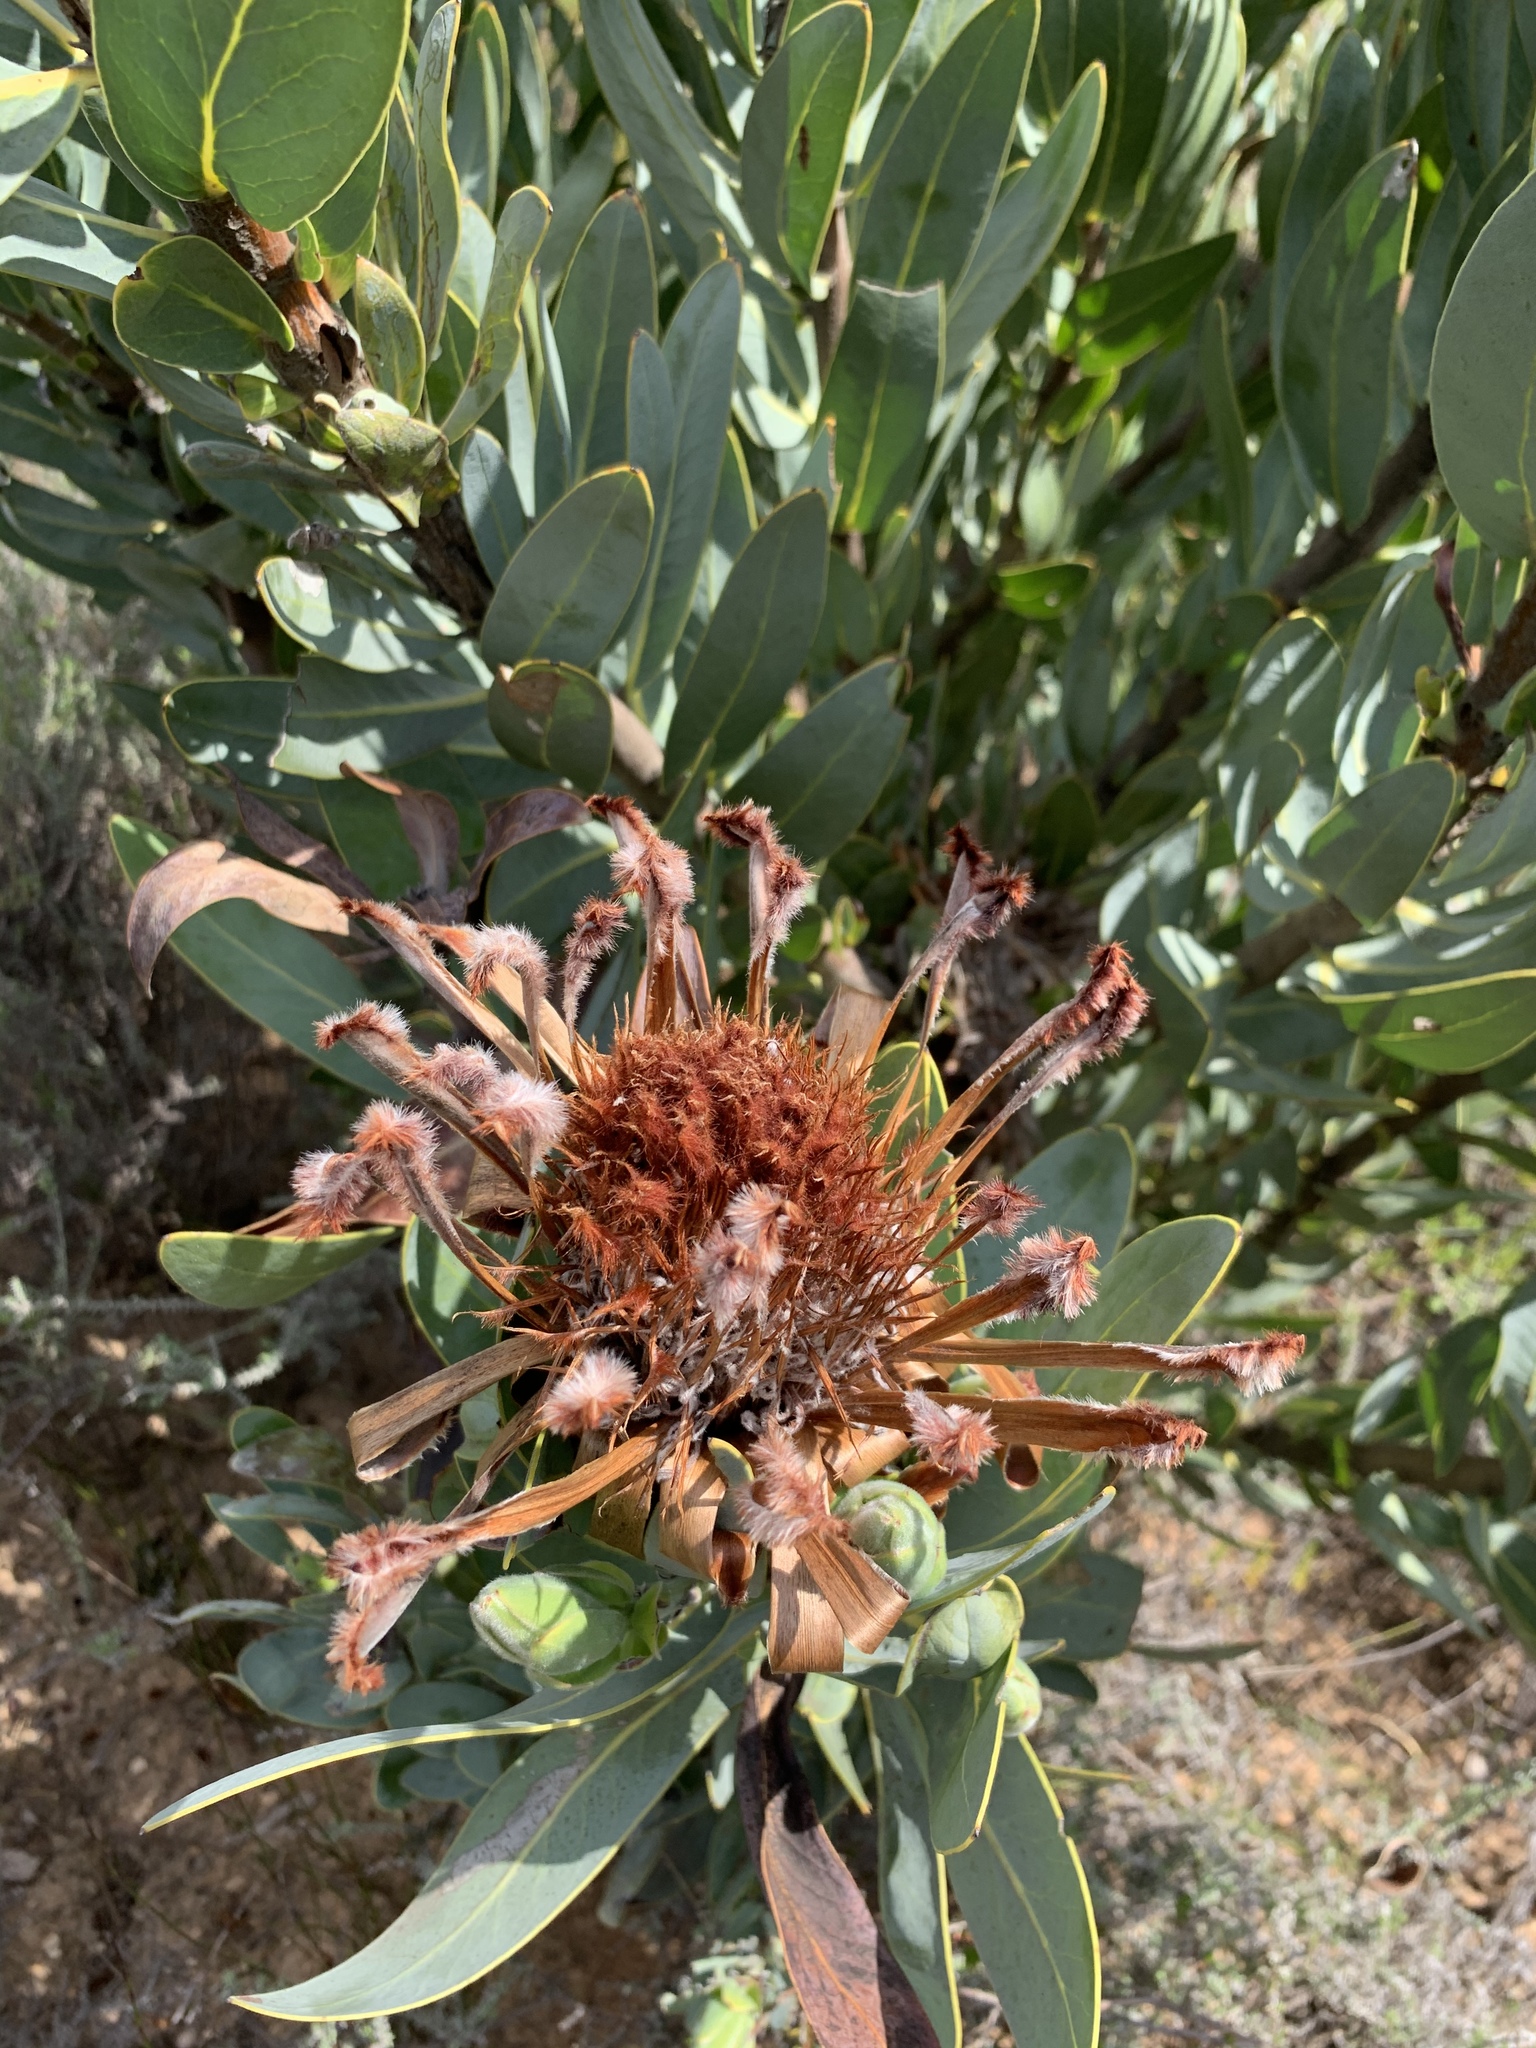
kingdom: Plantae
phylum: Tracheophyta
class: Magnoliopsida
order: Proteales
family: Proteaceae
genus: Protea
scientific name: Protea laurifolia
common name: Grey-leaf sugarbsh
